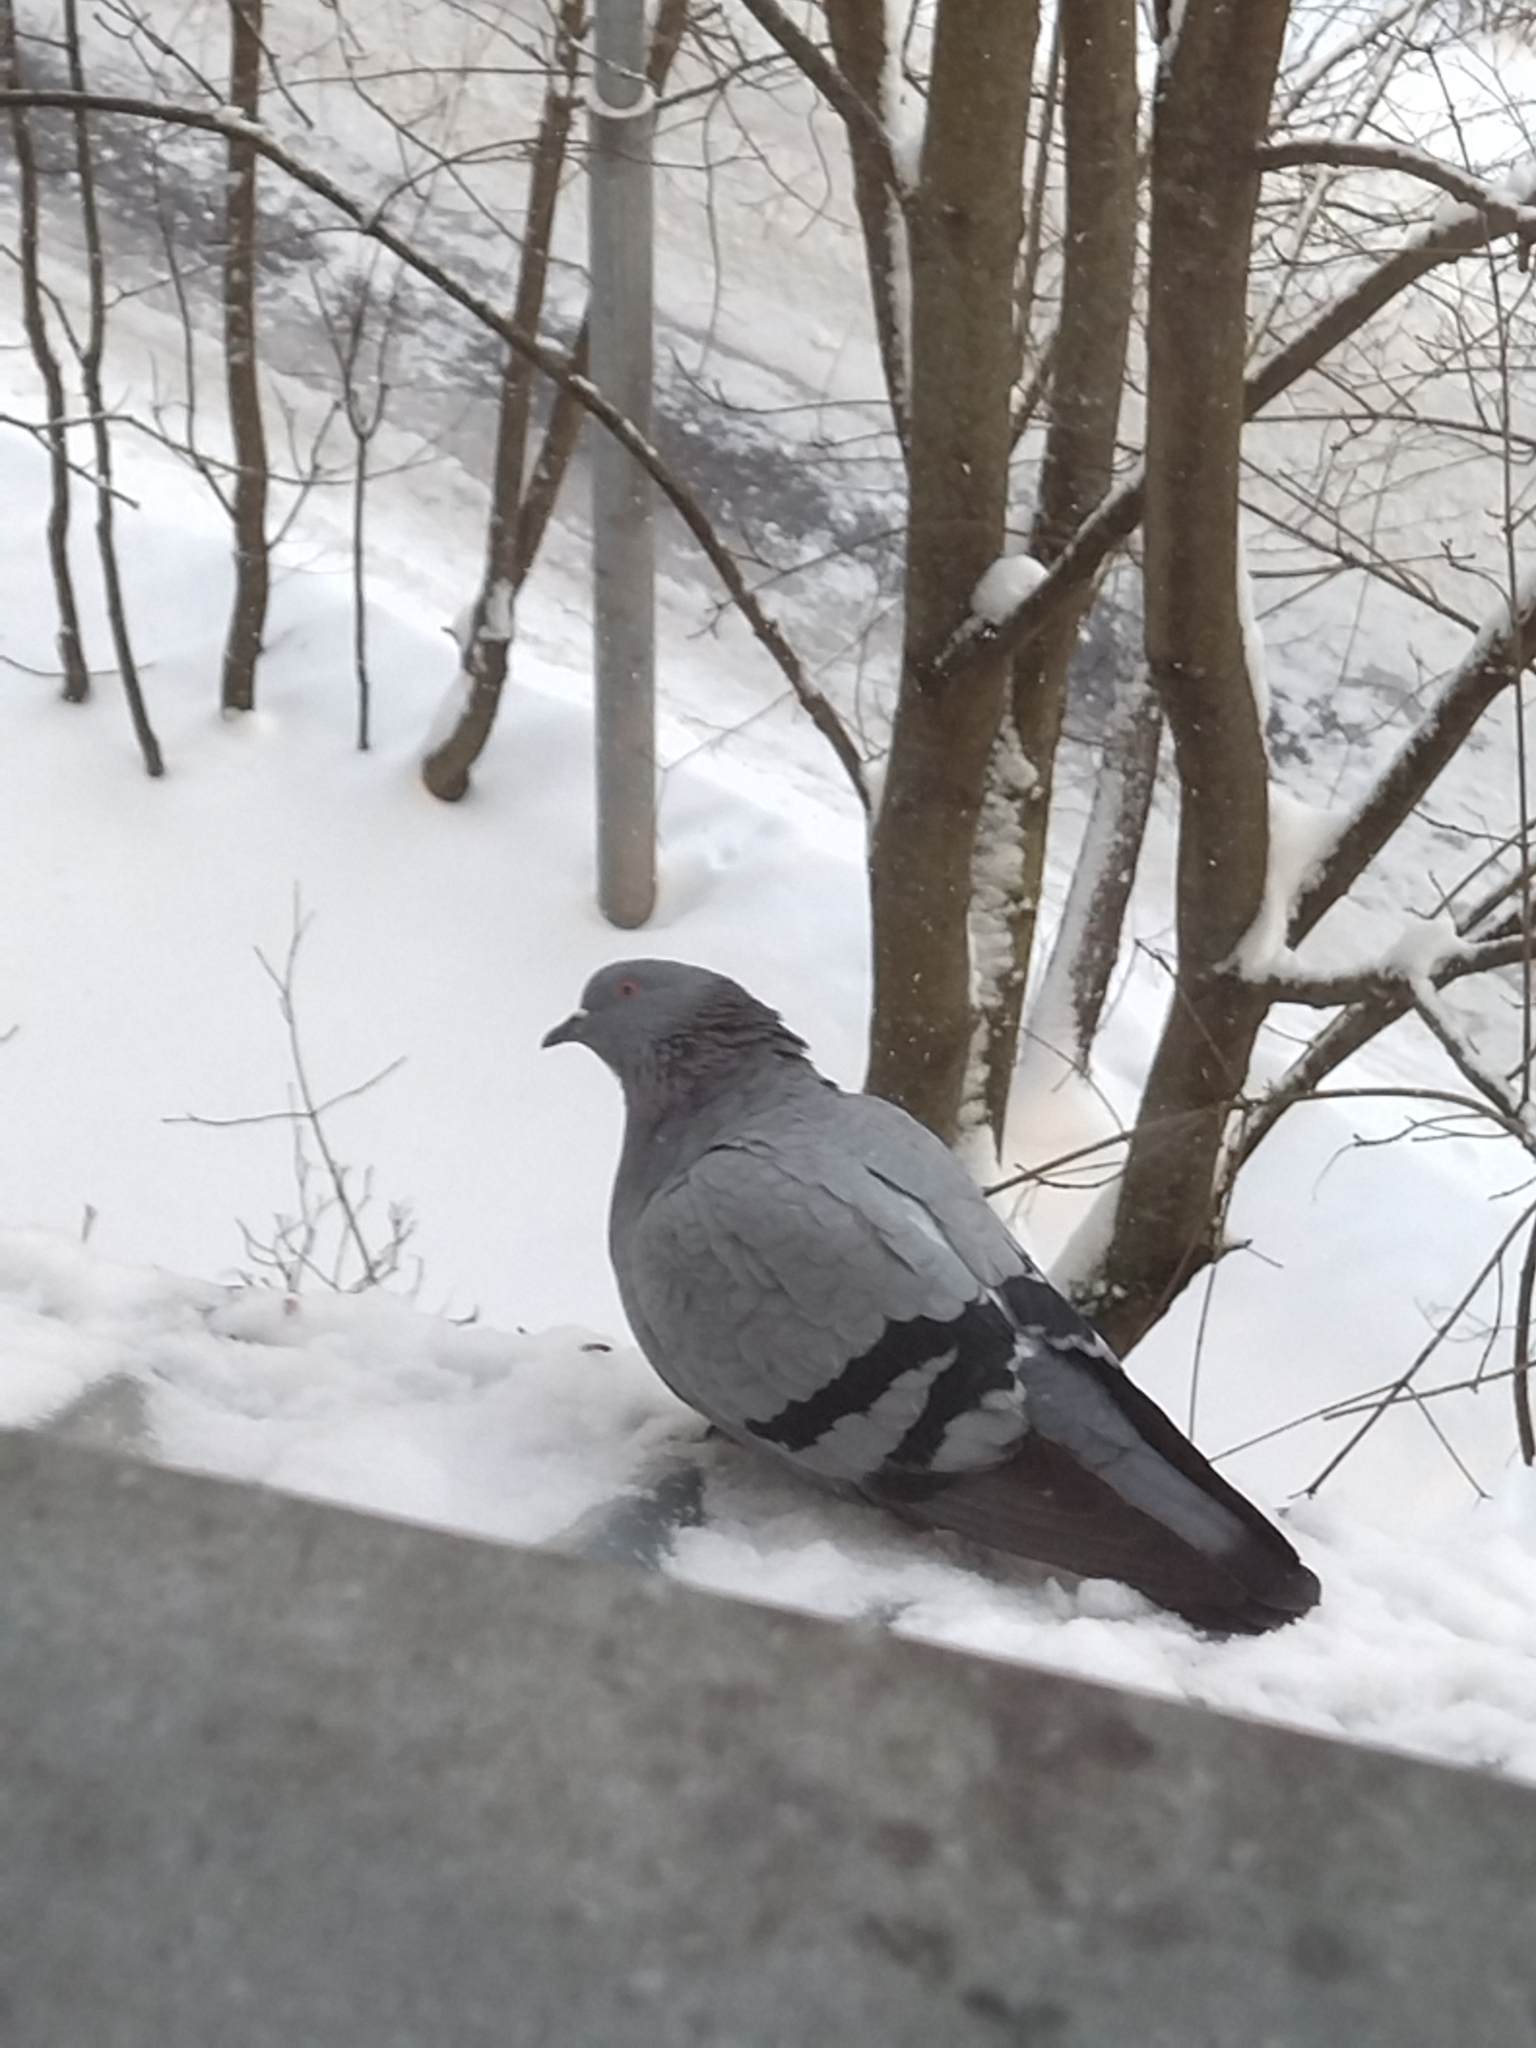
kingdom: Animalia
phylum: Chordata
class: Aves
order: Columbiformes
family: Columbidae
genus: Columba
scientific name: Columba livia
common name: Rock pigeon
